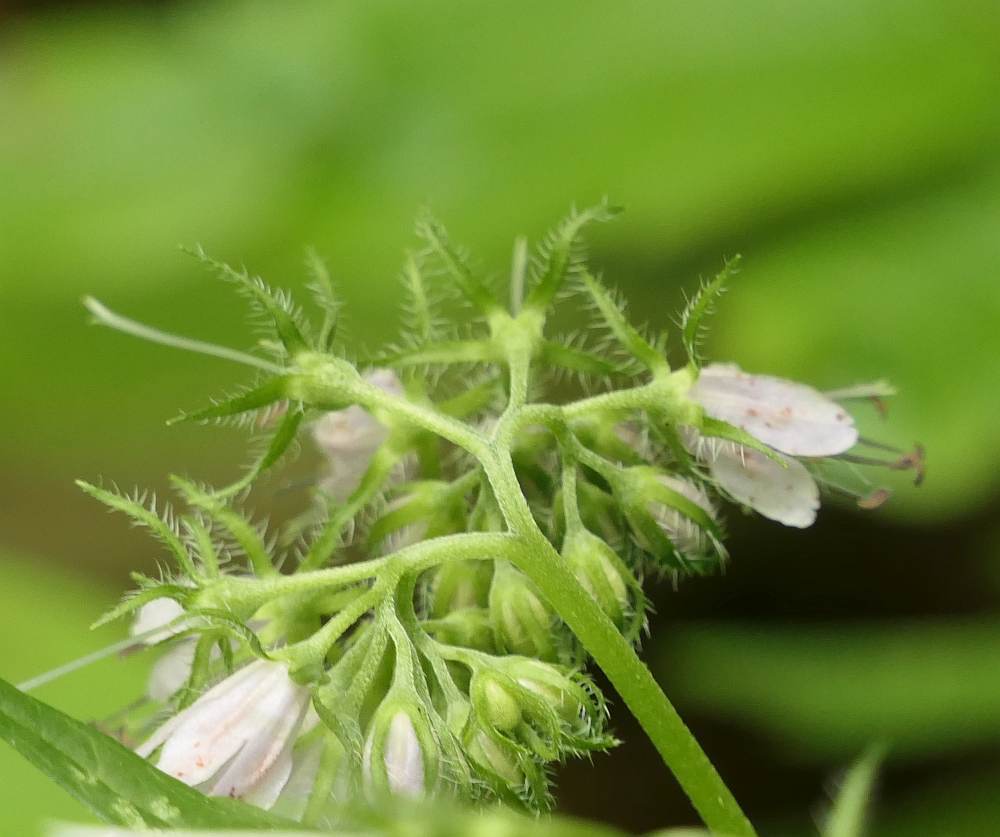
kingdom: Plantae
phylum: Tracheophyta
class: Magnoliopsida
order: Boraginales
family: Hydrophyllaceae
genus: Hydrophyllum
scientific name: Hydrophyllum virginianum
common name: Virginia waterleaf
